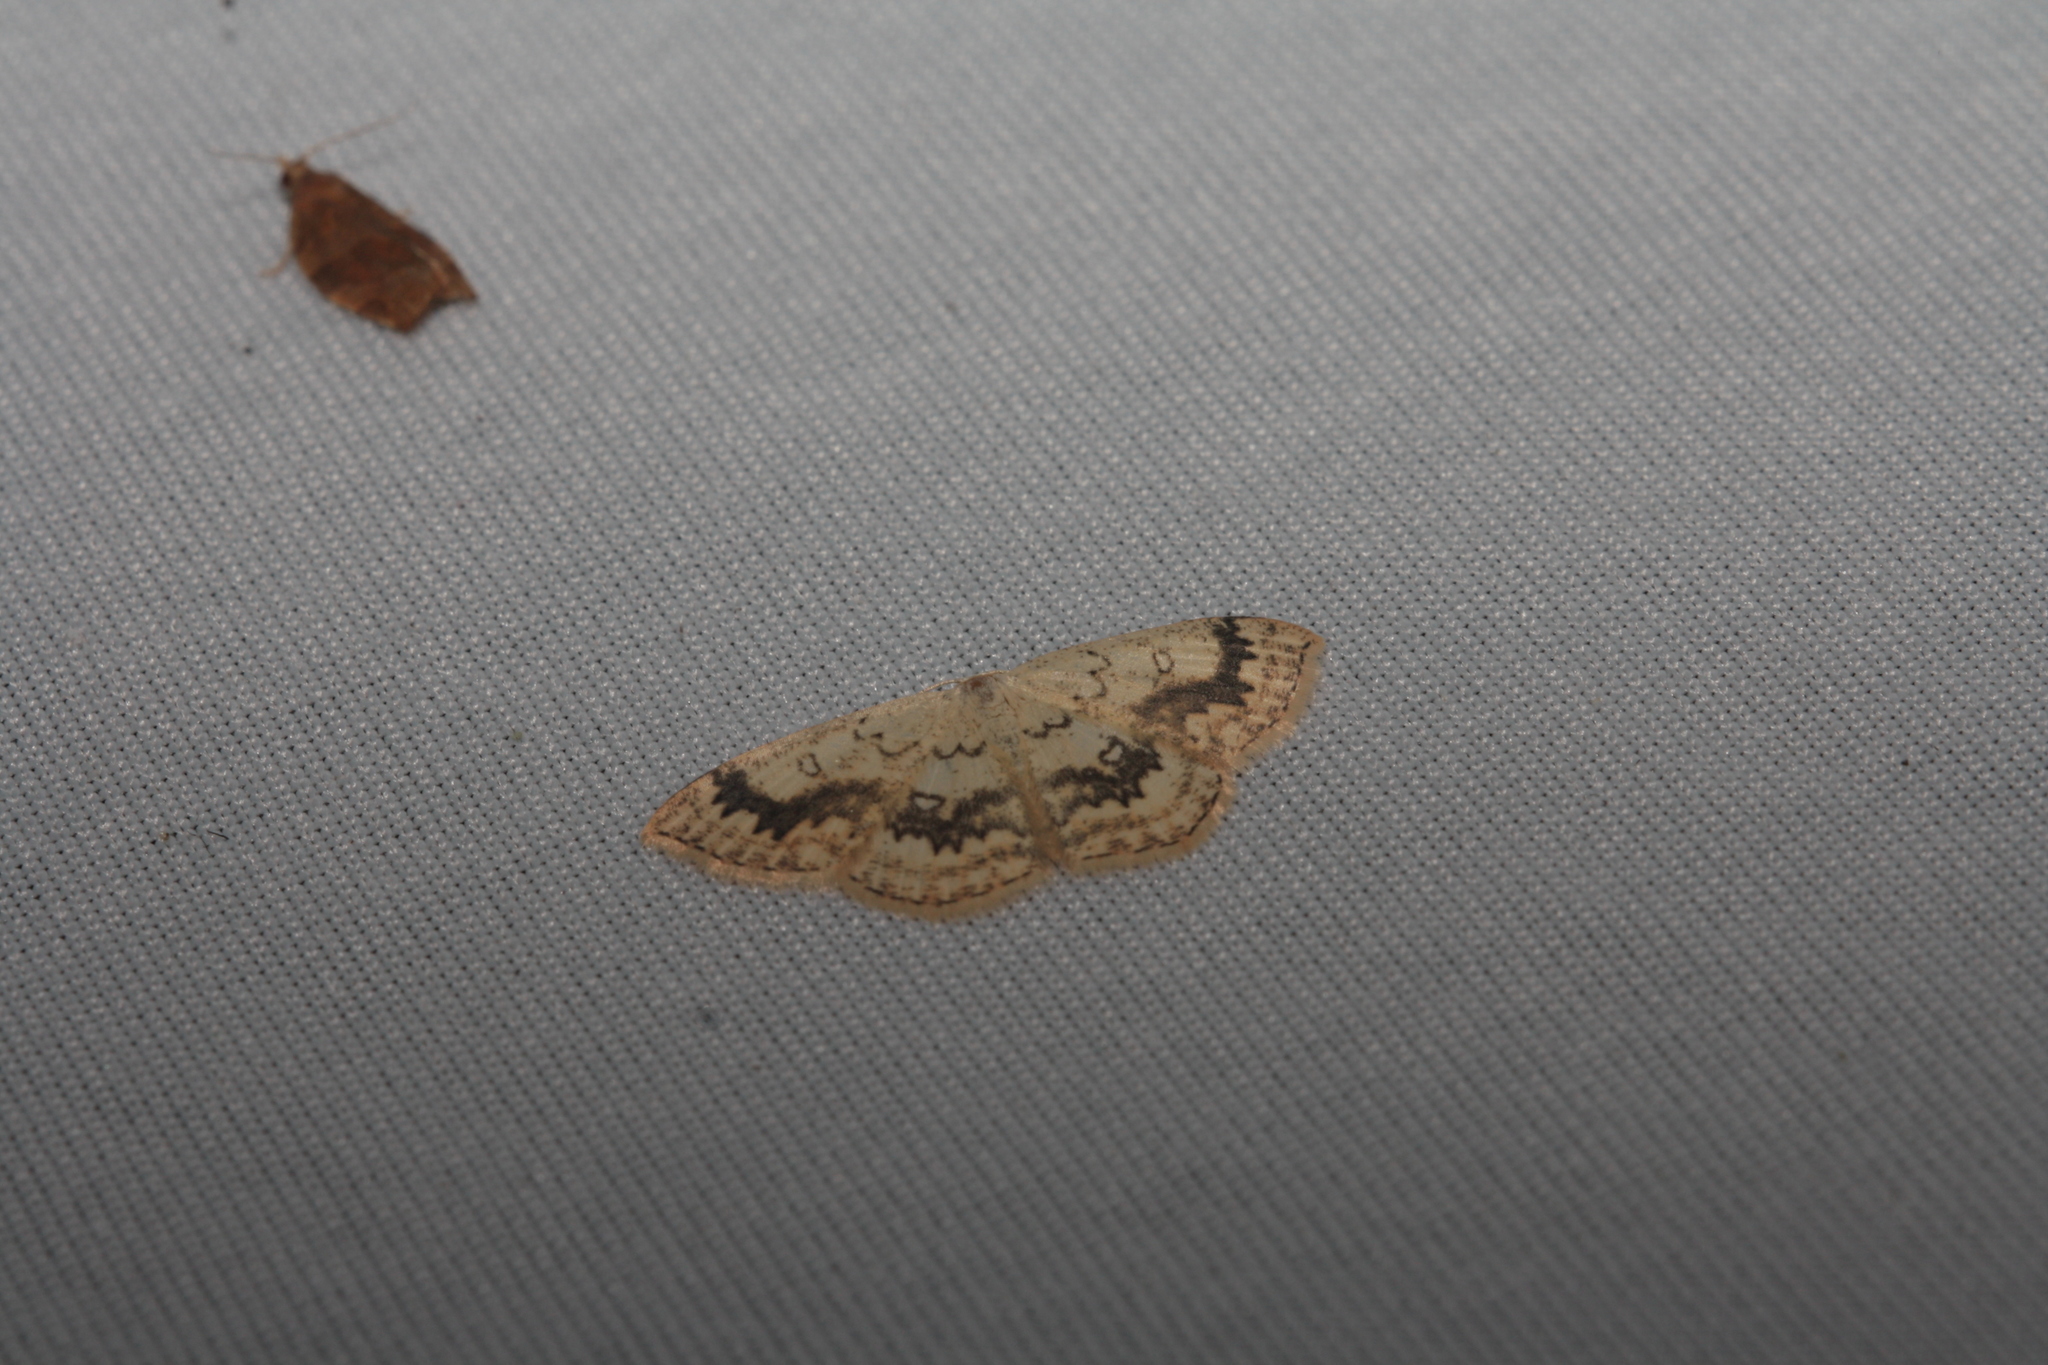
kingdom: Animalia
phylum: Arthropoda
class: Insecta
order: Lepidoptera
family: Geometridae
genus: Cyclophora
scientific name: Cyclophora annularia
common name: Mocha
